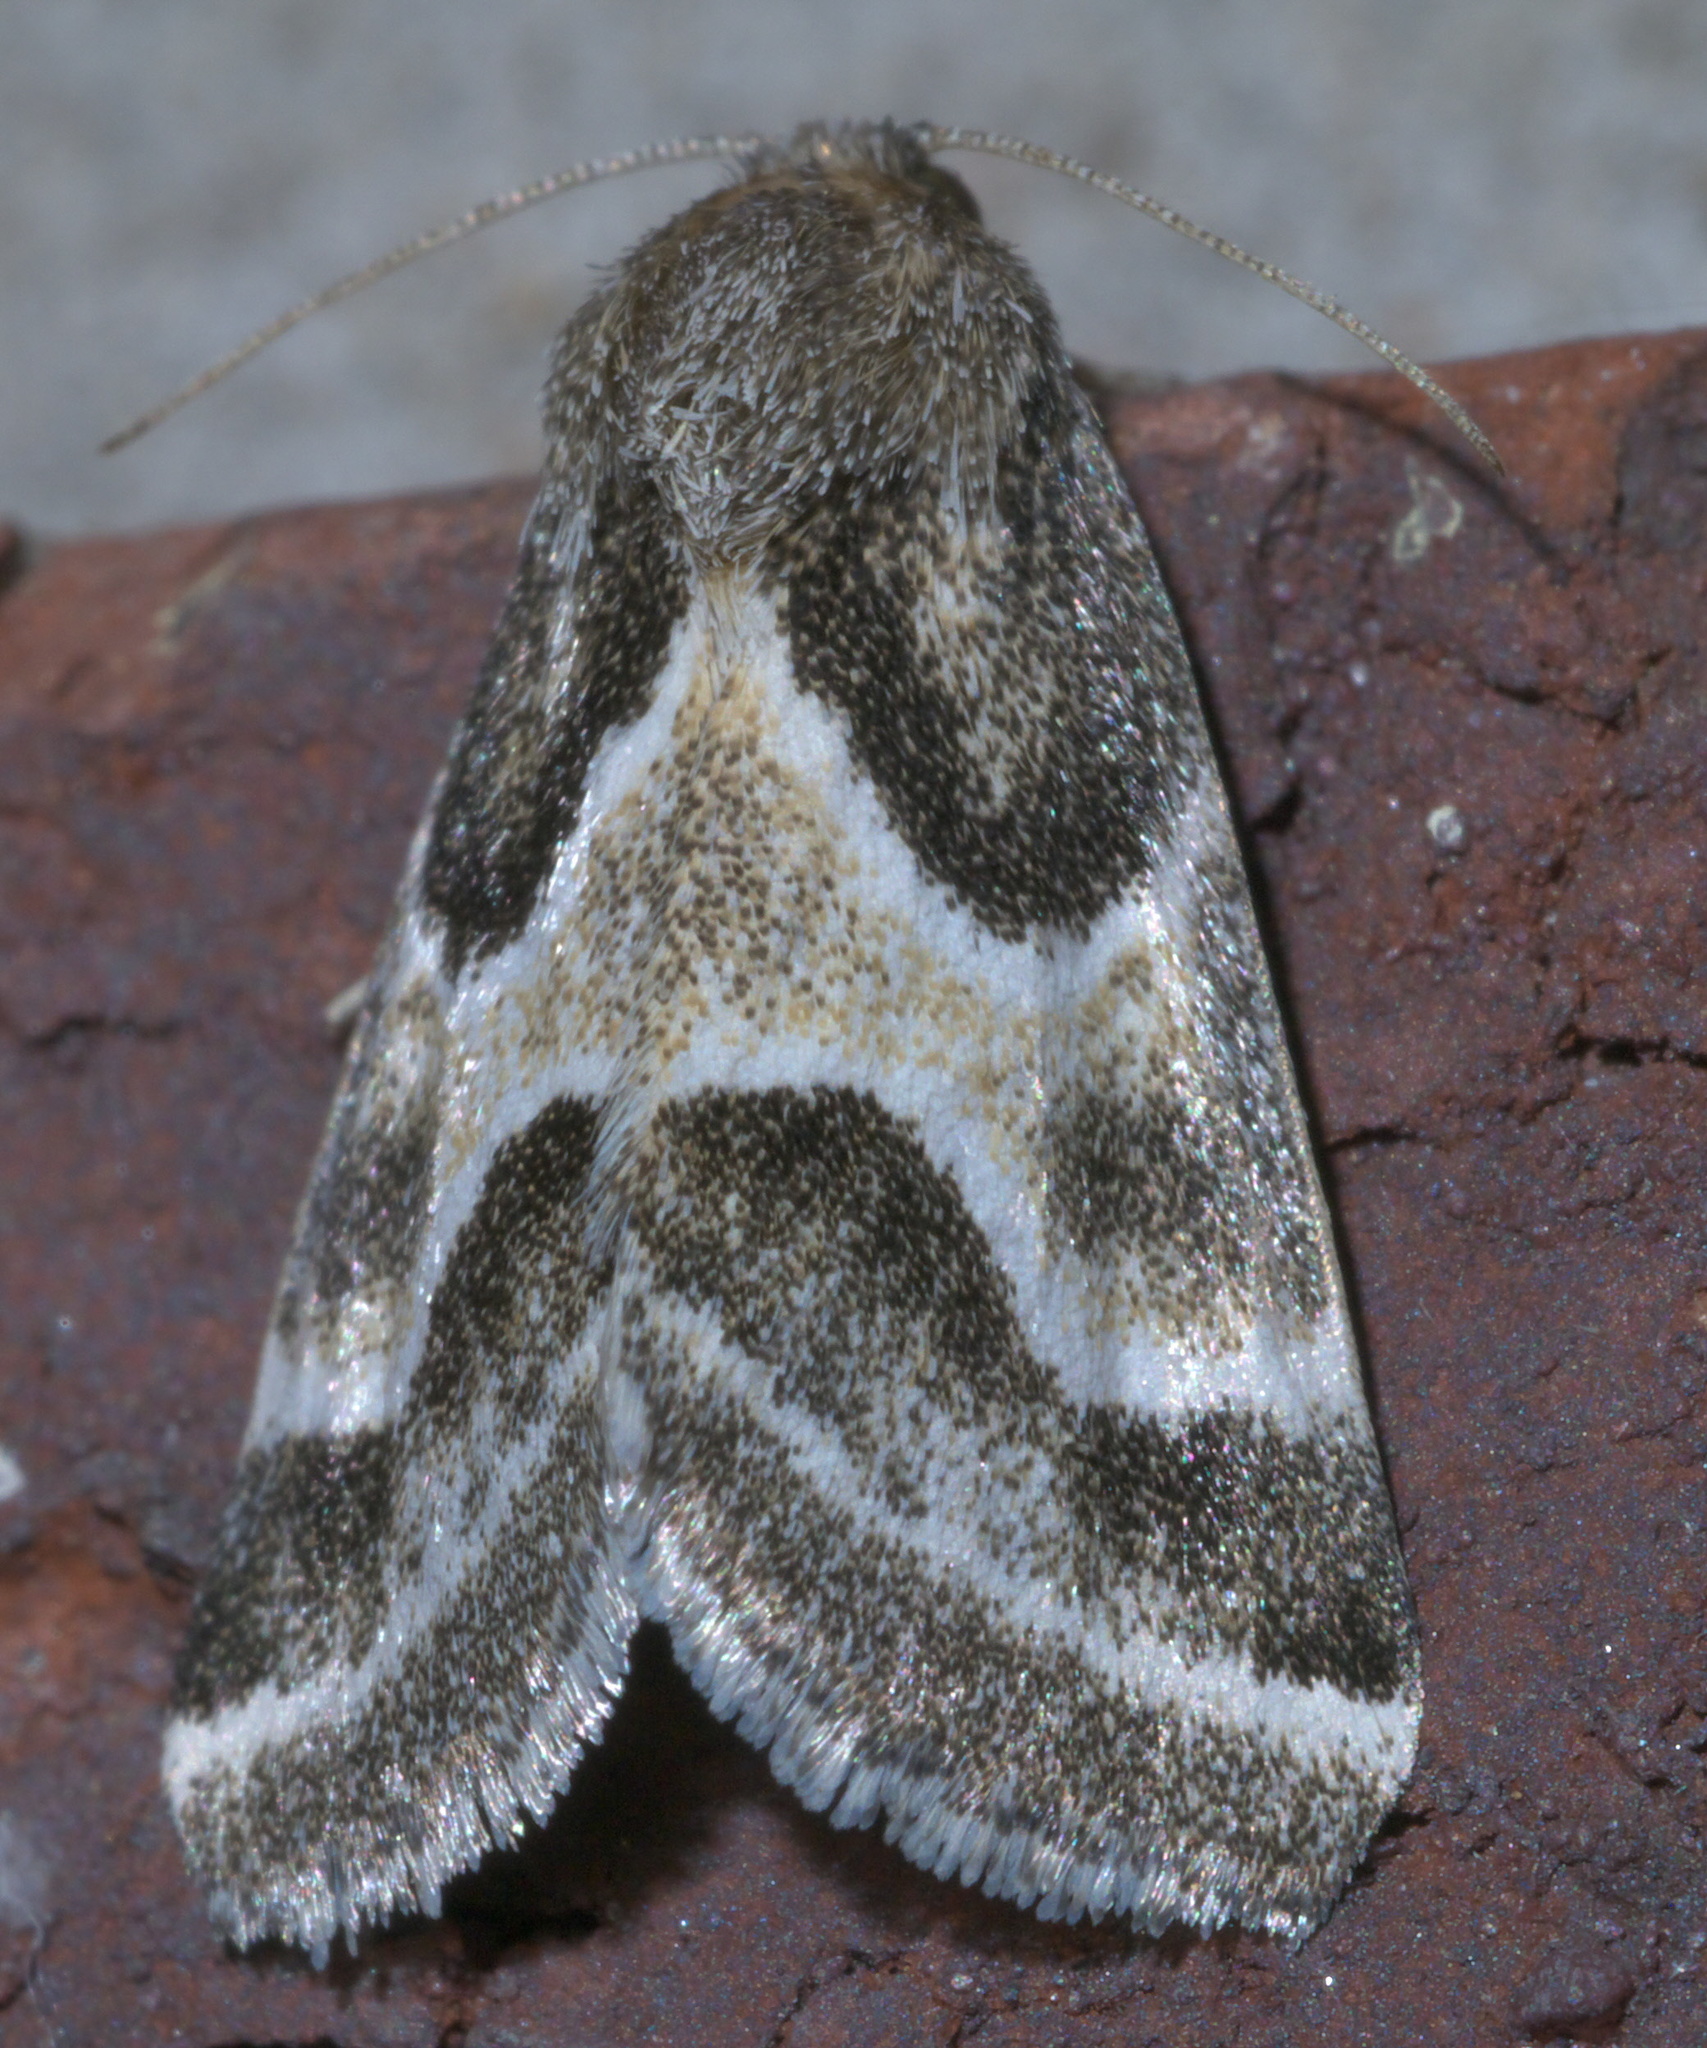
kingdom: Animalia
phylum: Arthropoda
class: Insecta
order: Lepidoptera
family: Noctuidae
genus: Schinia
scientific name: Schinia rivulosa
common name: Scarce meal-moth
